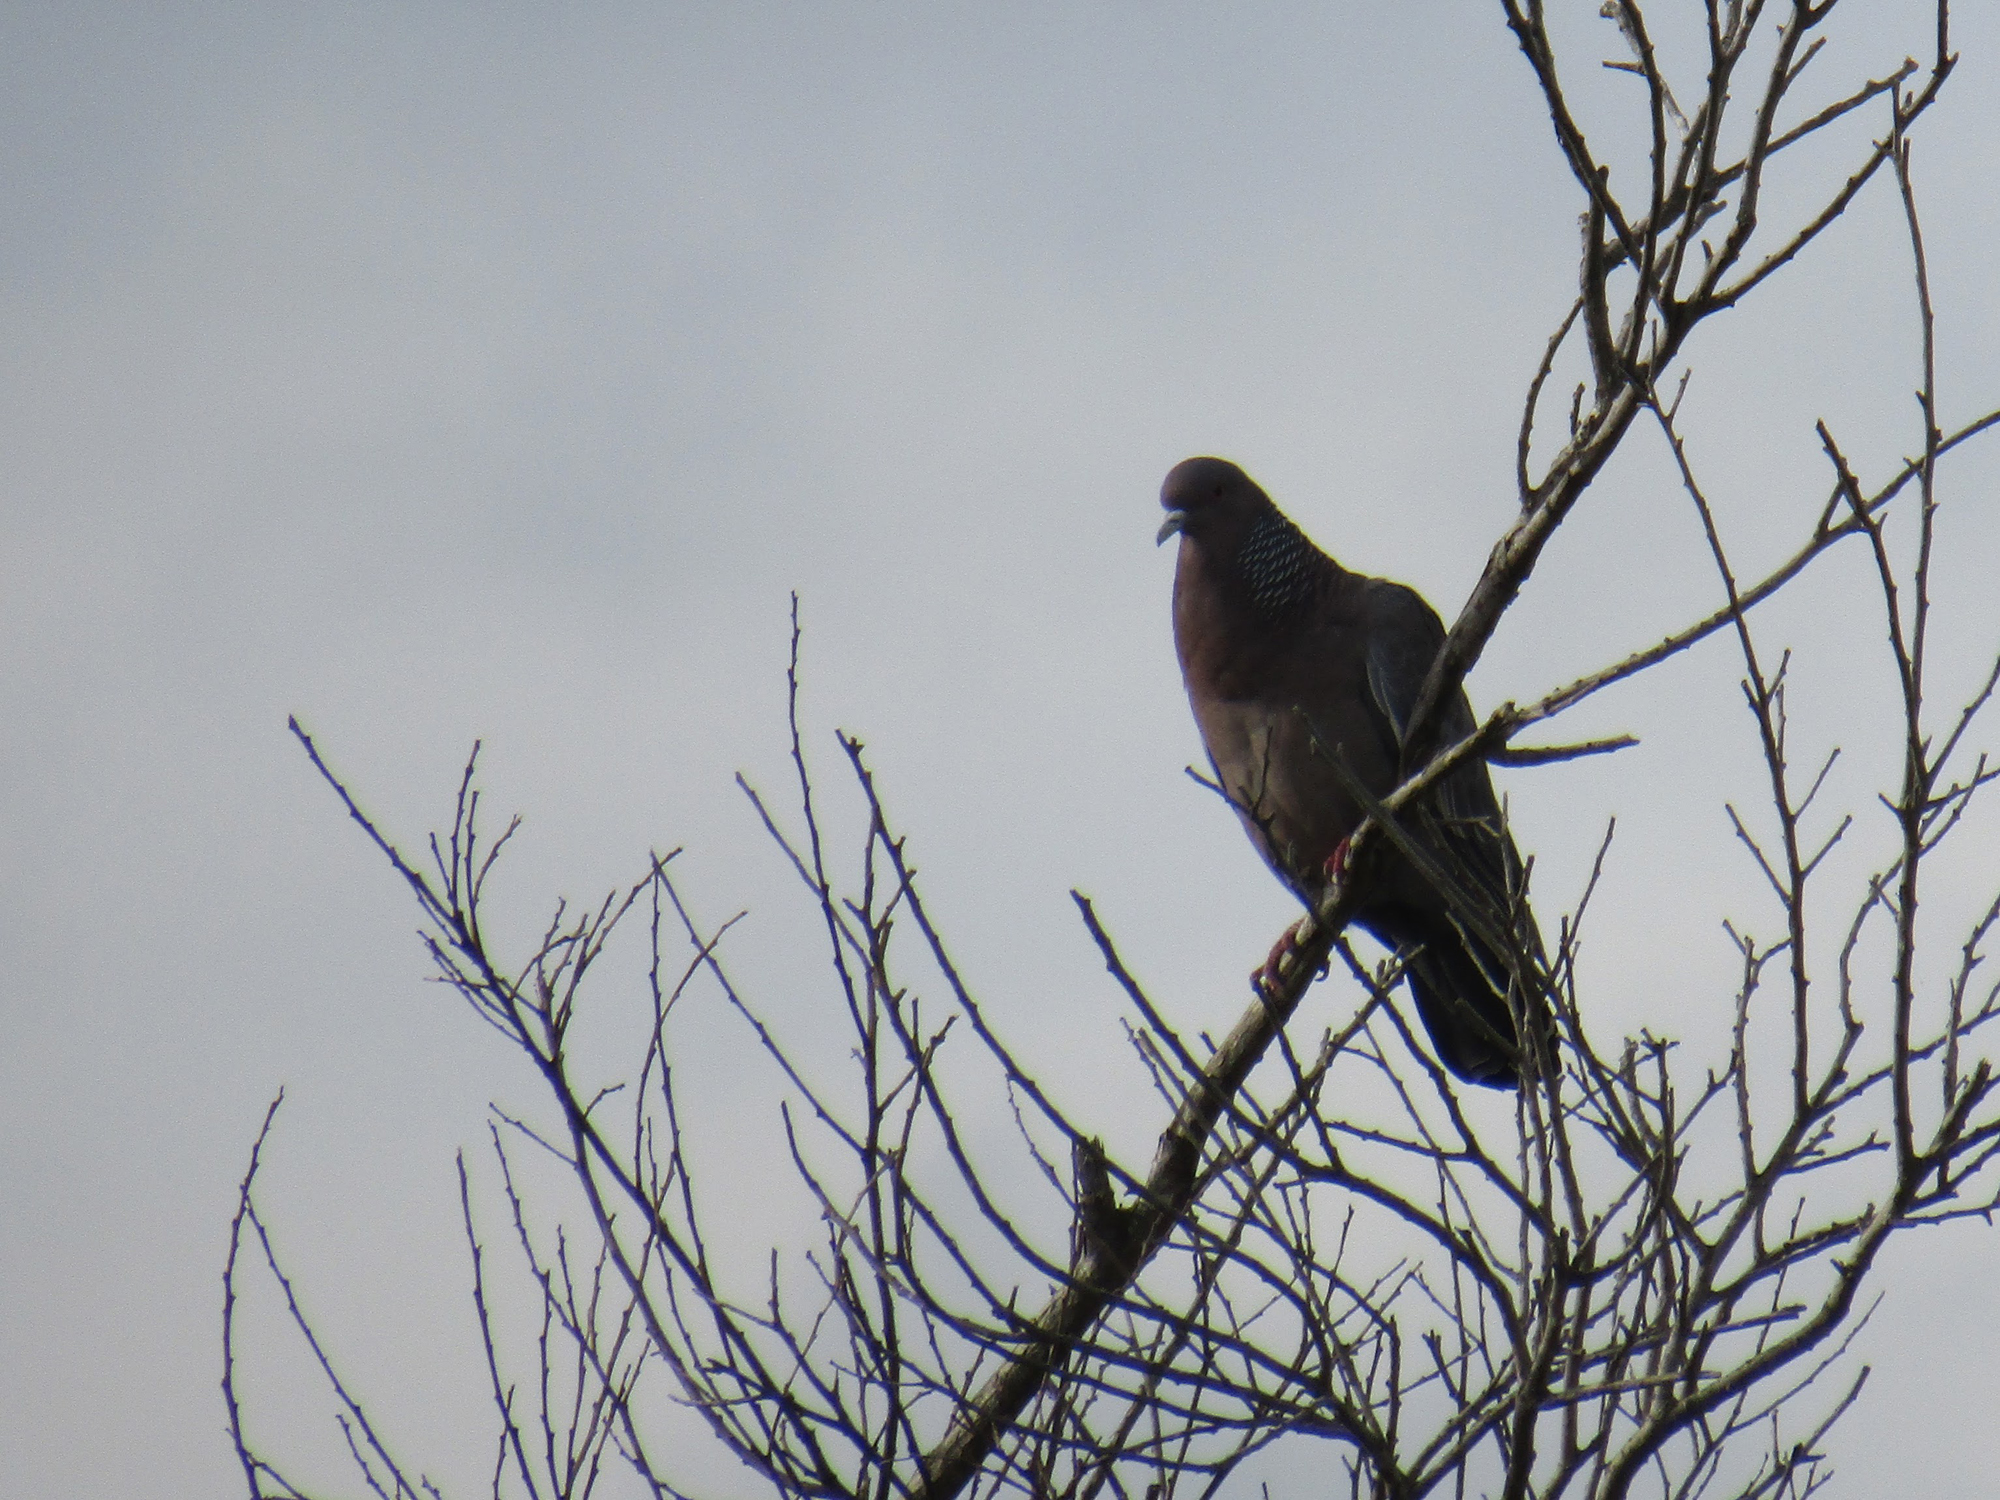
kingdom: Animalia
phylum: Chordata
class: Aves
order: Columbiformes
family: Columbidae
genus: Patagioenas
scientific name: Patagioenas picazuro
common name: Picazuro pigeon
